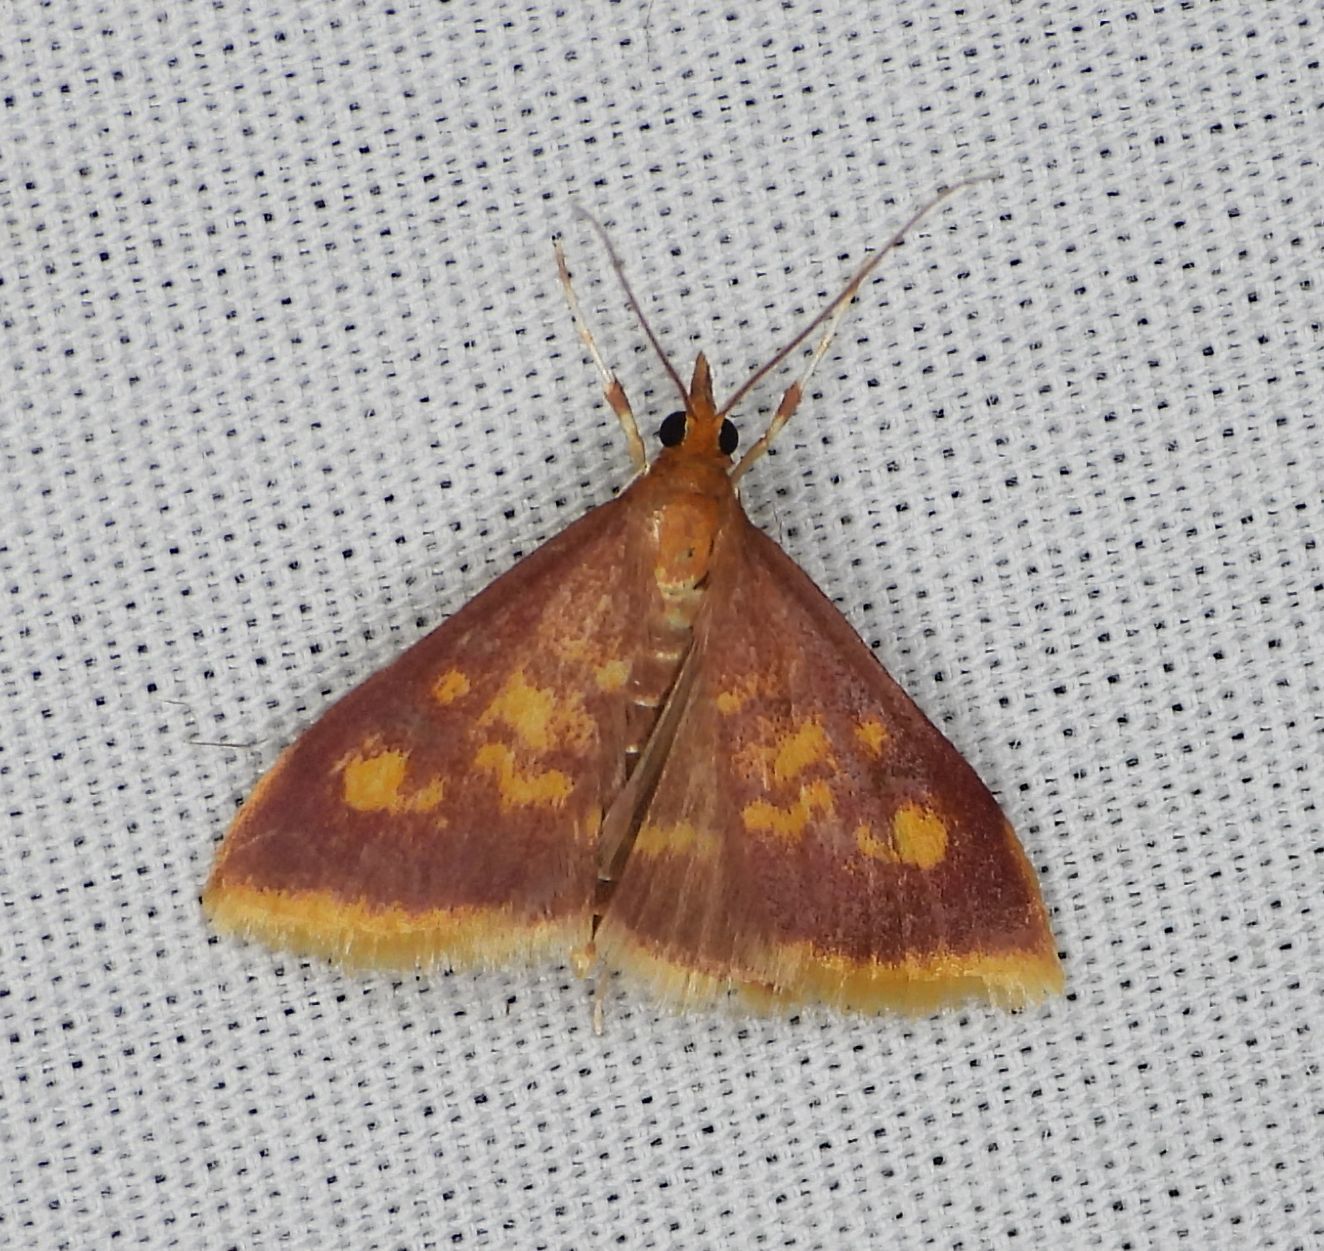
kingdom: Animalia
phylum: Arthropoda
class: Insecta
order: Lepidoptera
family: Crambidae
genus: Pyrausta
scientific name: Pyrausta acrionalis
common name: Mint-loving pyrausta moth
